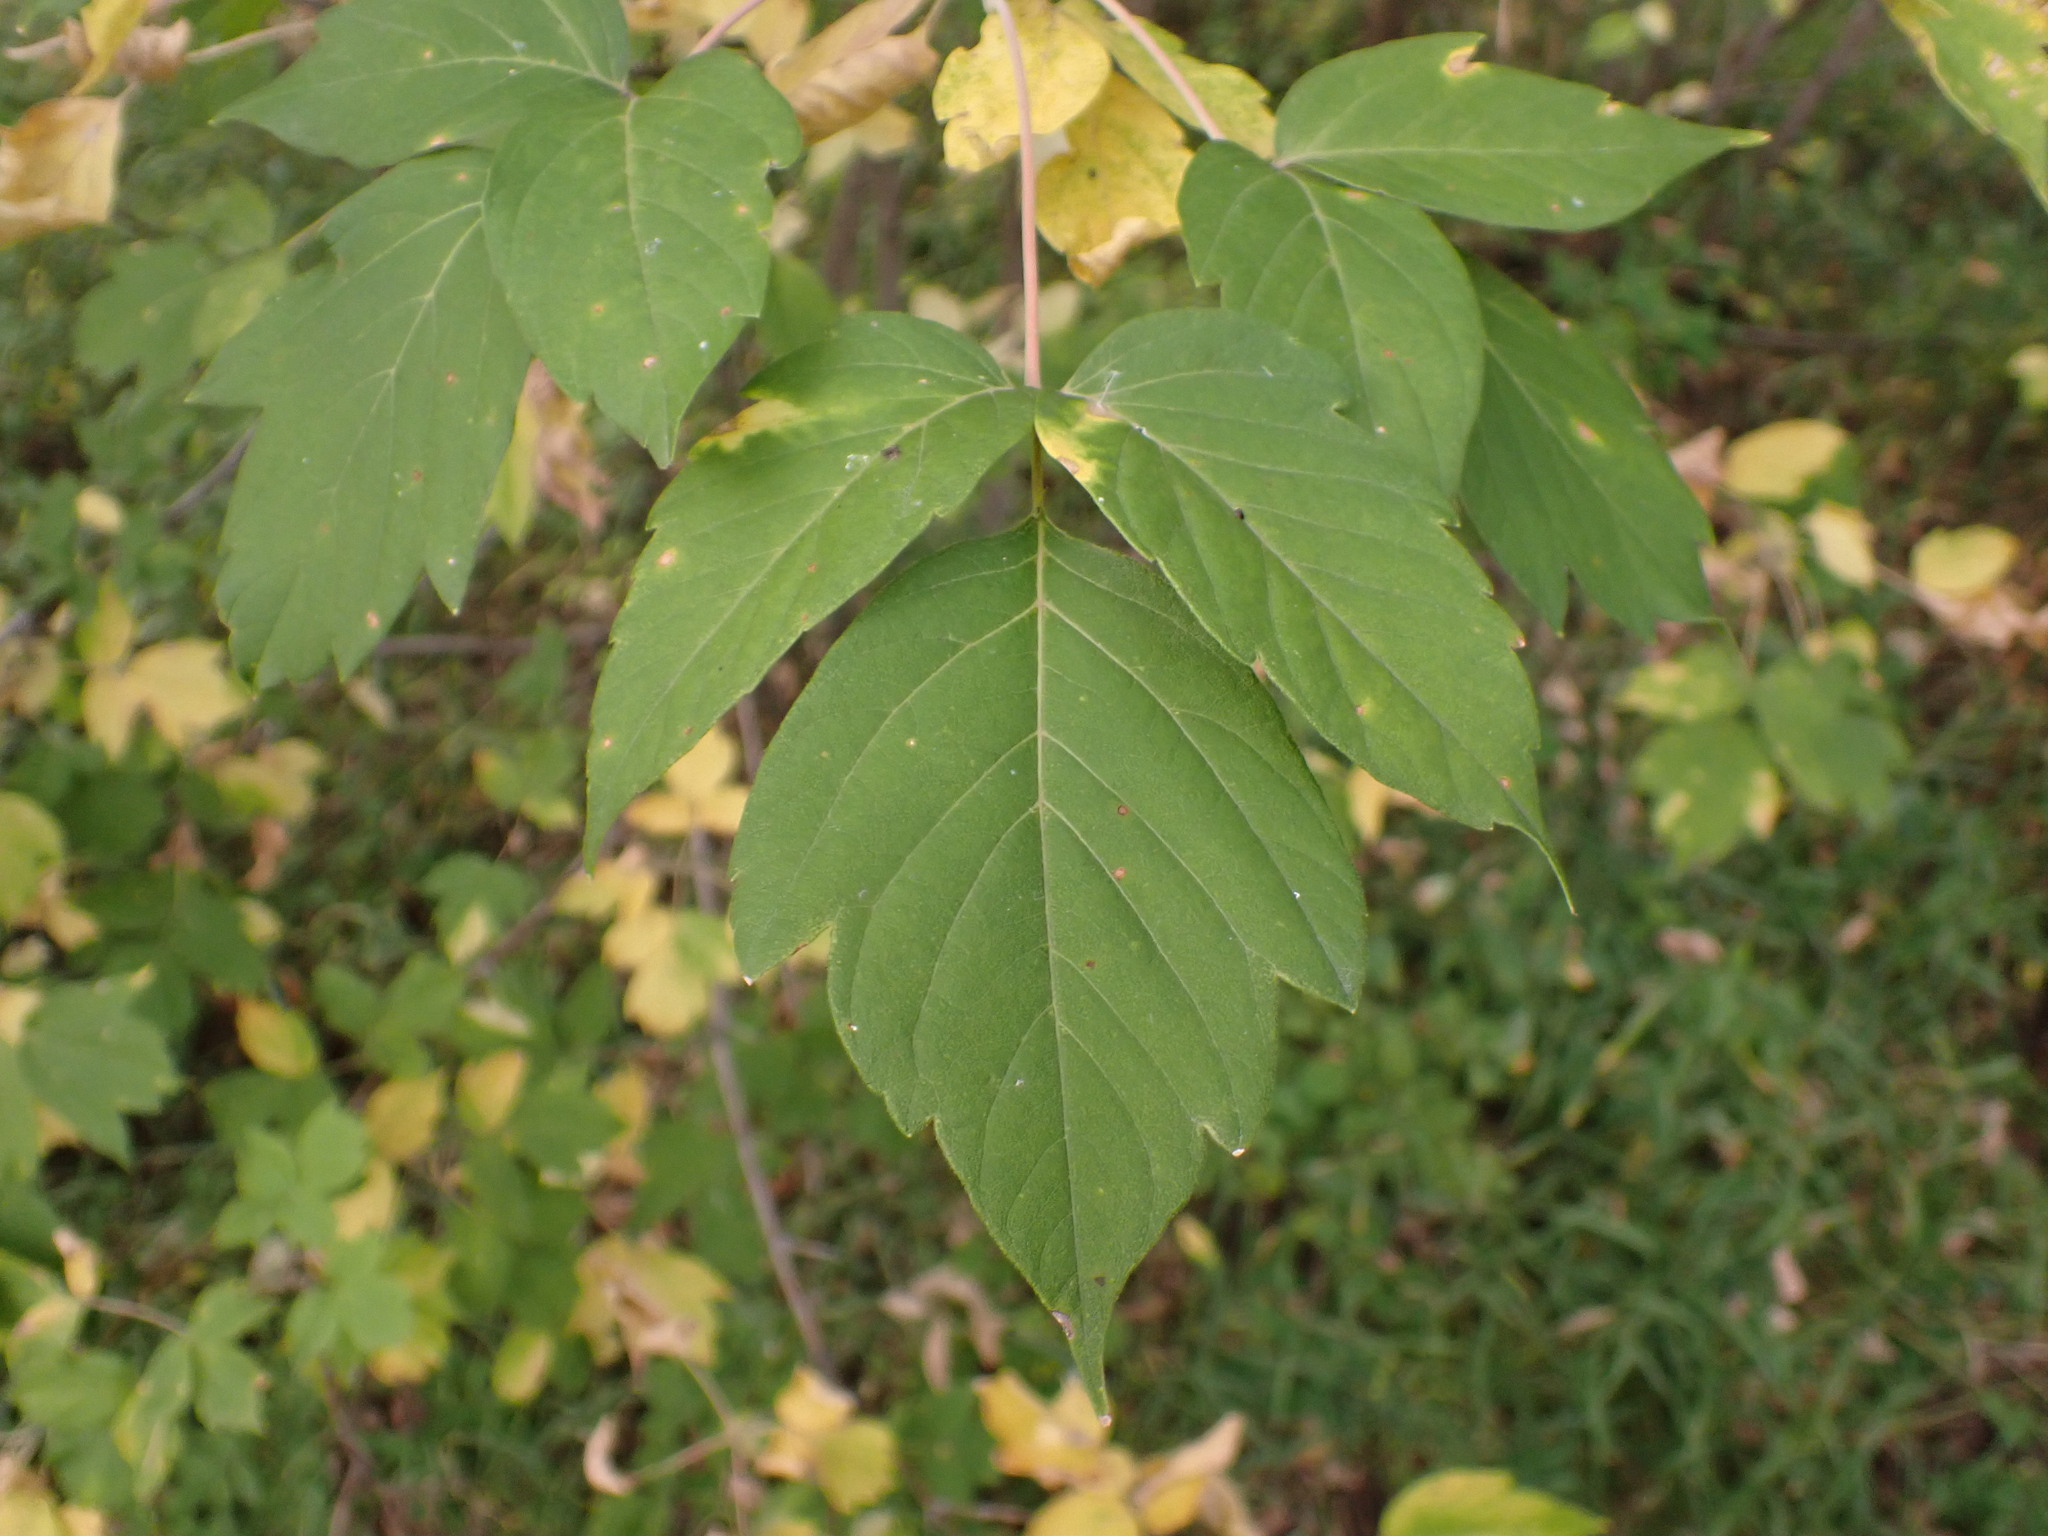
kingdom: Plantae
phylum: Tracheophyta
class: Magnoliopsida
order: Sapindales
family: Sapindaceae
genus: Acer
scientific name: Acer negundo
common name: Ashleaf maple
